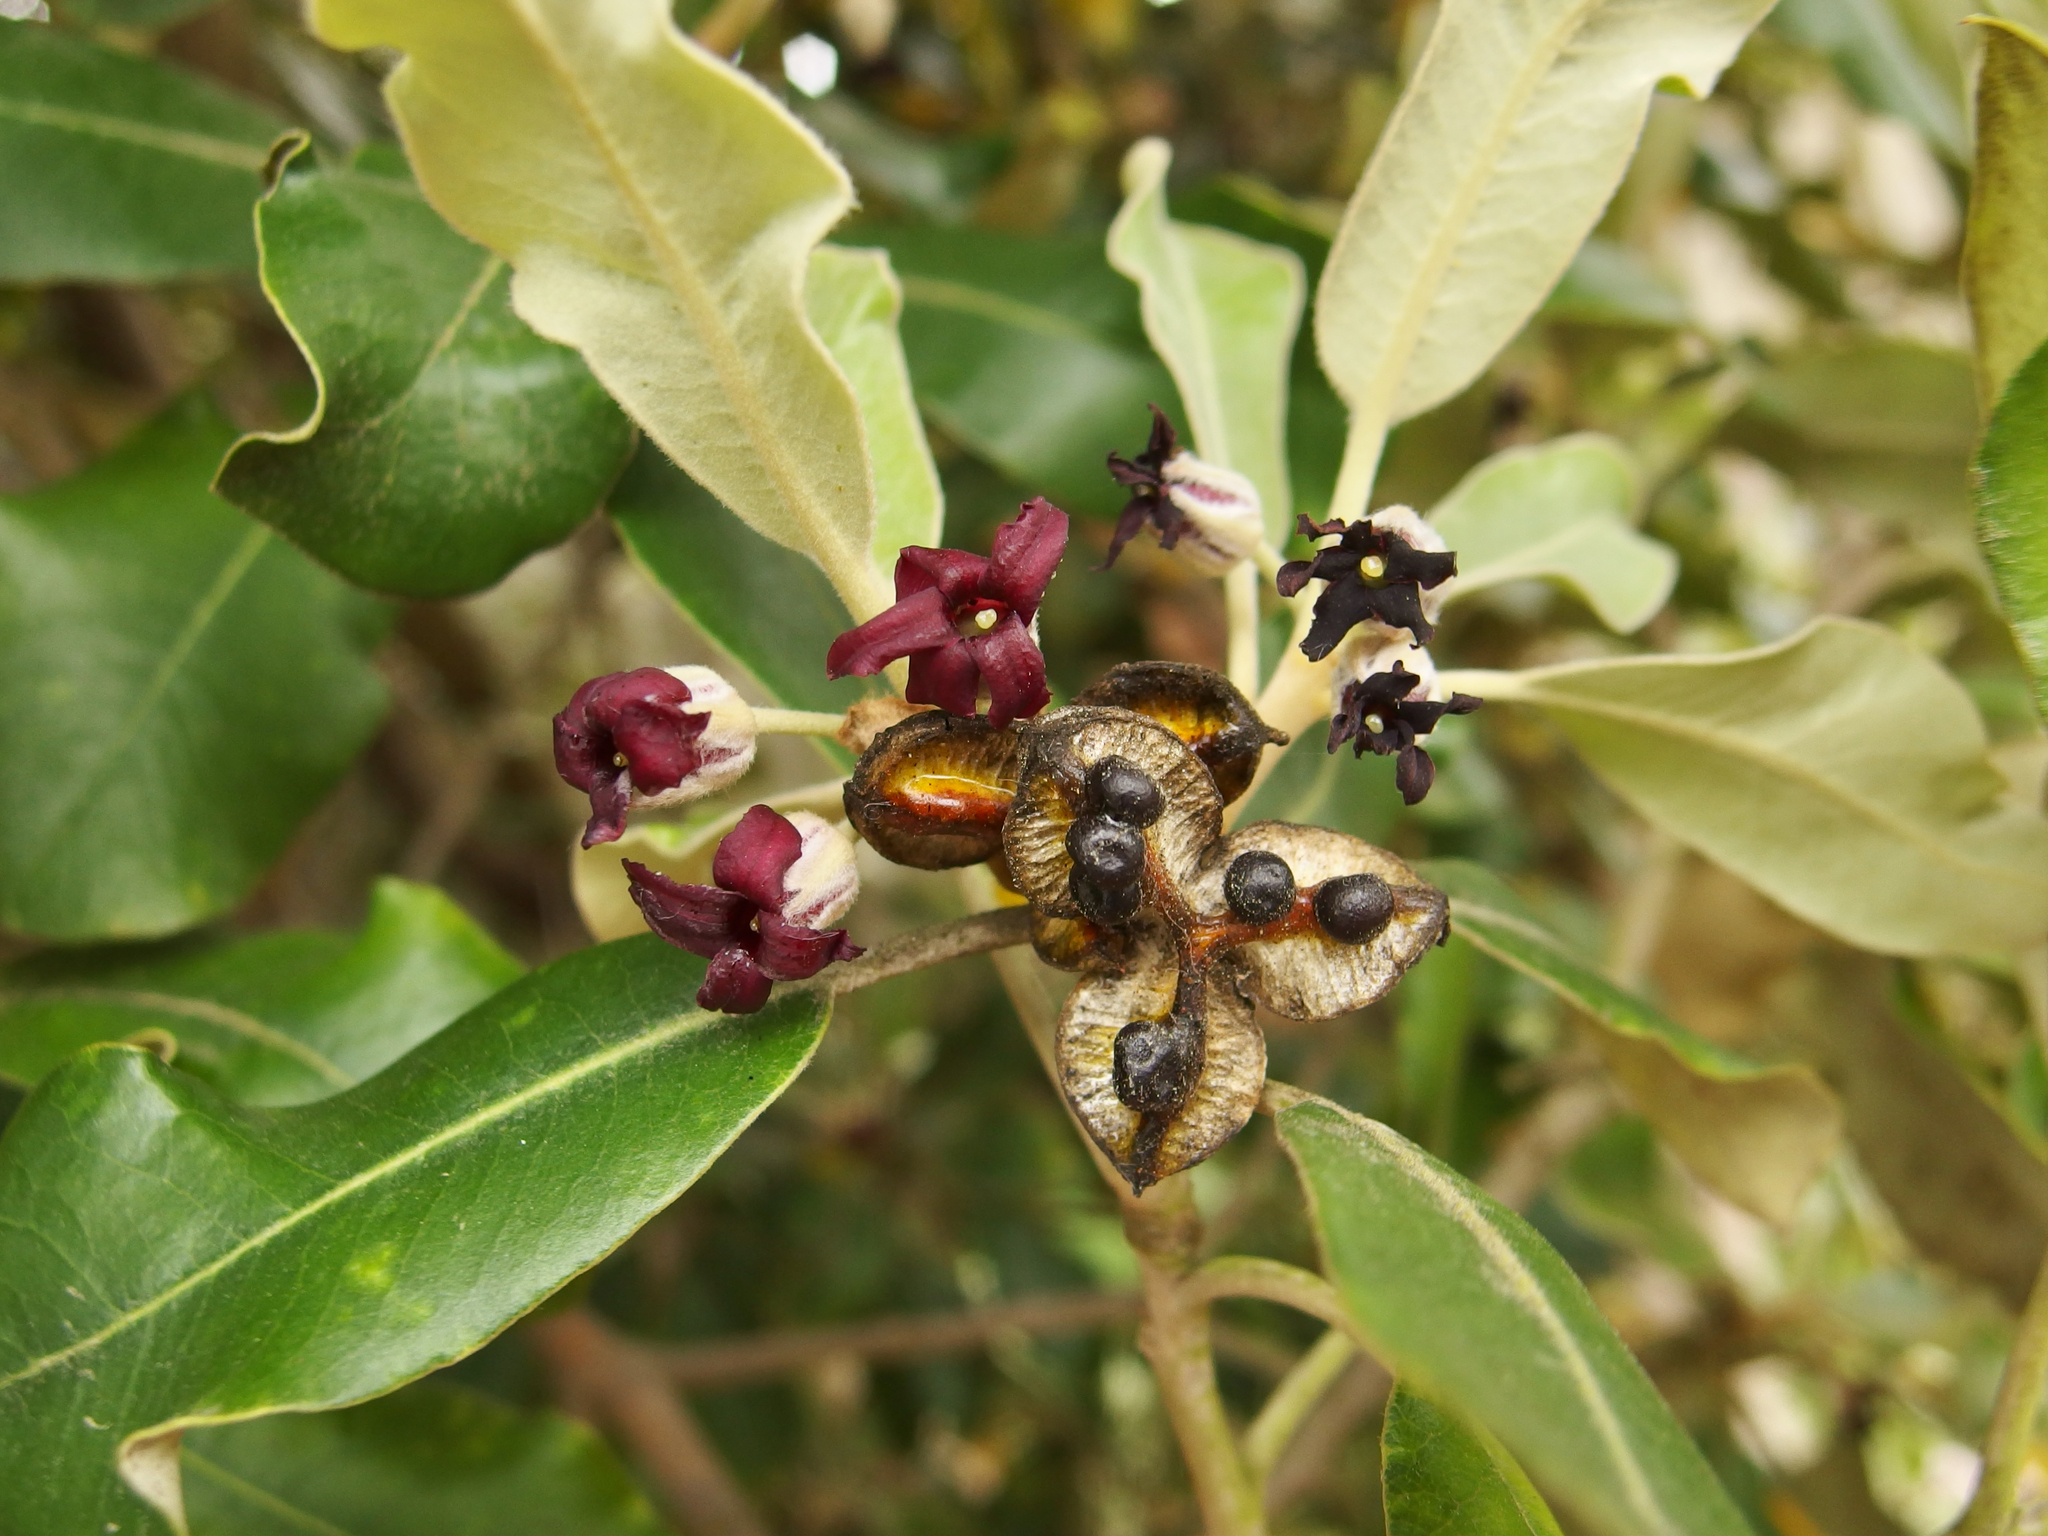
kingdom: Plantae
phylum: Tracheophyta
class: Magnoliopsida
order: Apiales
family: Pittosporaceae
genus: Pittosporum
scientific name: Pittosporum crassifolium
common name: Karo
